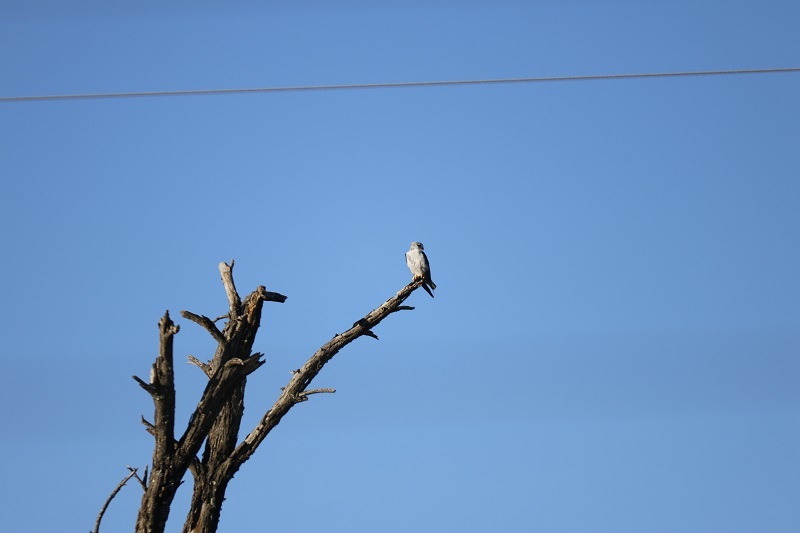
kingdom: Animalia
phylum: Chordata
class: Aves
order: Accipitriformes
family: Accipitridae
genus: Elanus
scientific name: Elanus caeruleus
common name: Black-winged kite
